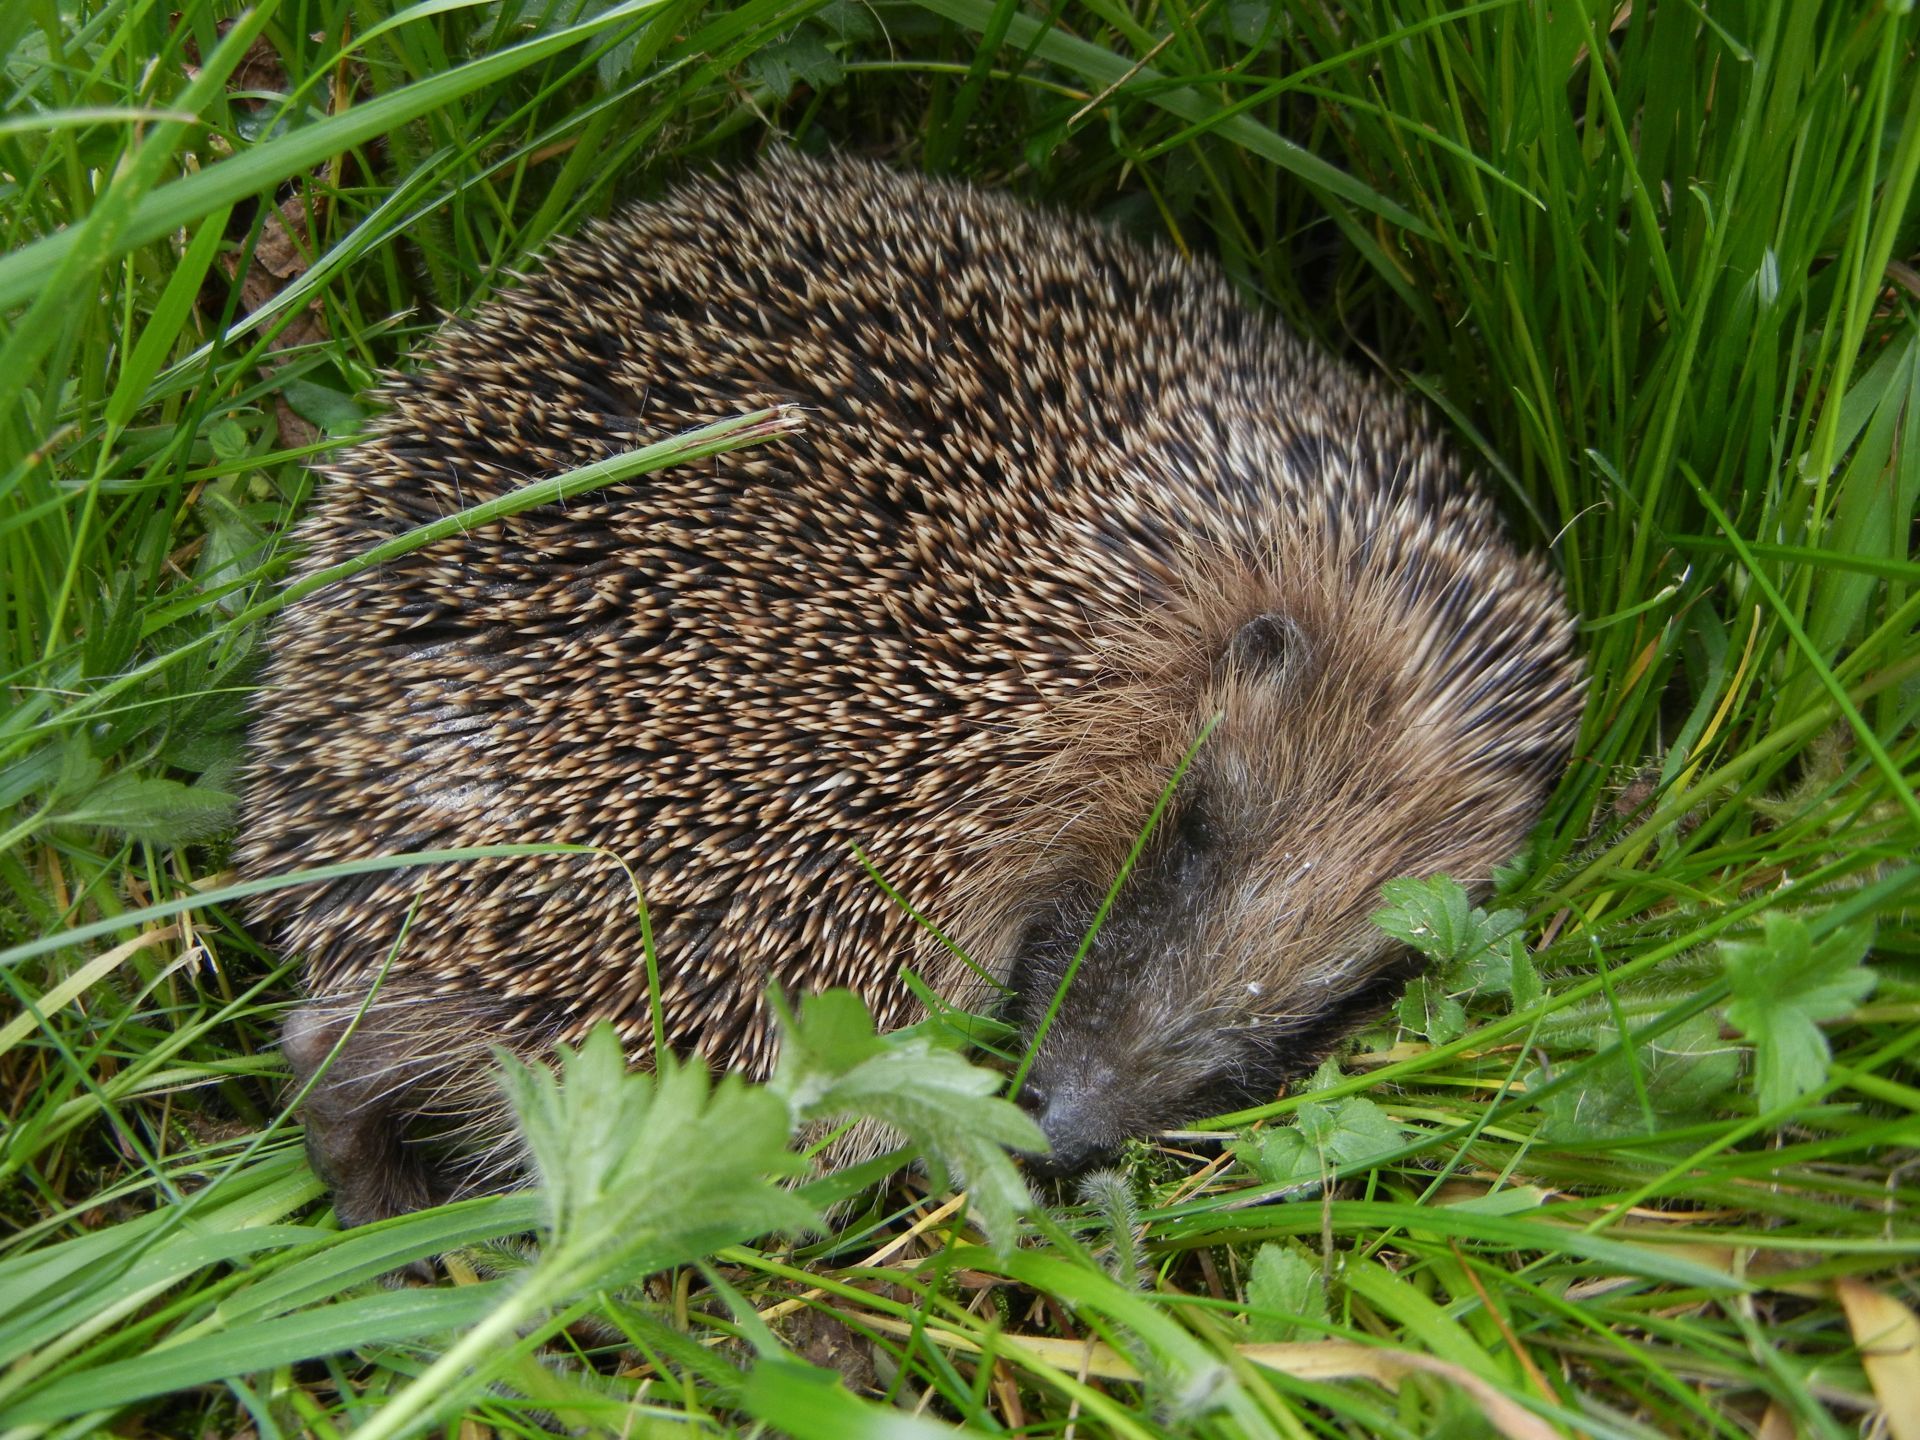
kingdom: Animalia
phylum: Chordata
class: Mammalia
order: Erinaceomorpha
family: Erinaceidae
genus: Erinaceus
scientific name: Erinaceus europaeus
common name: West european hedgehog
